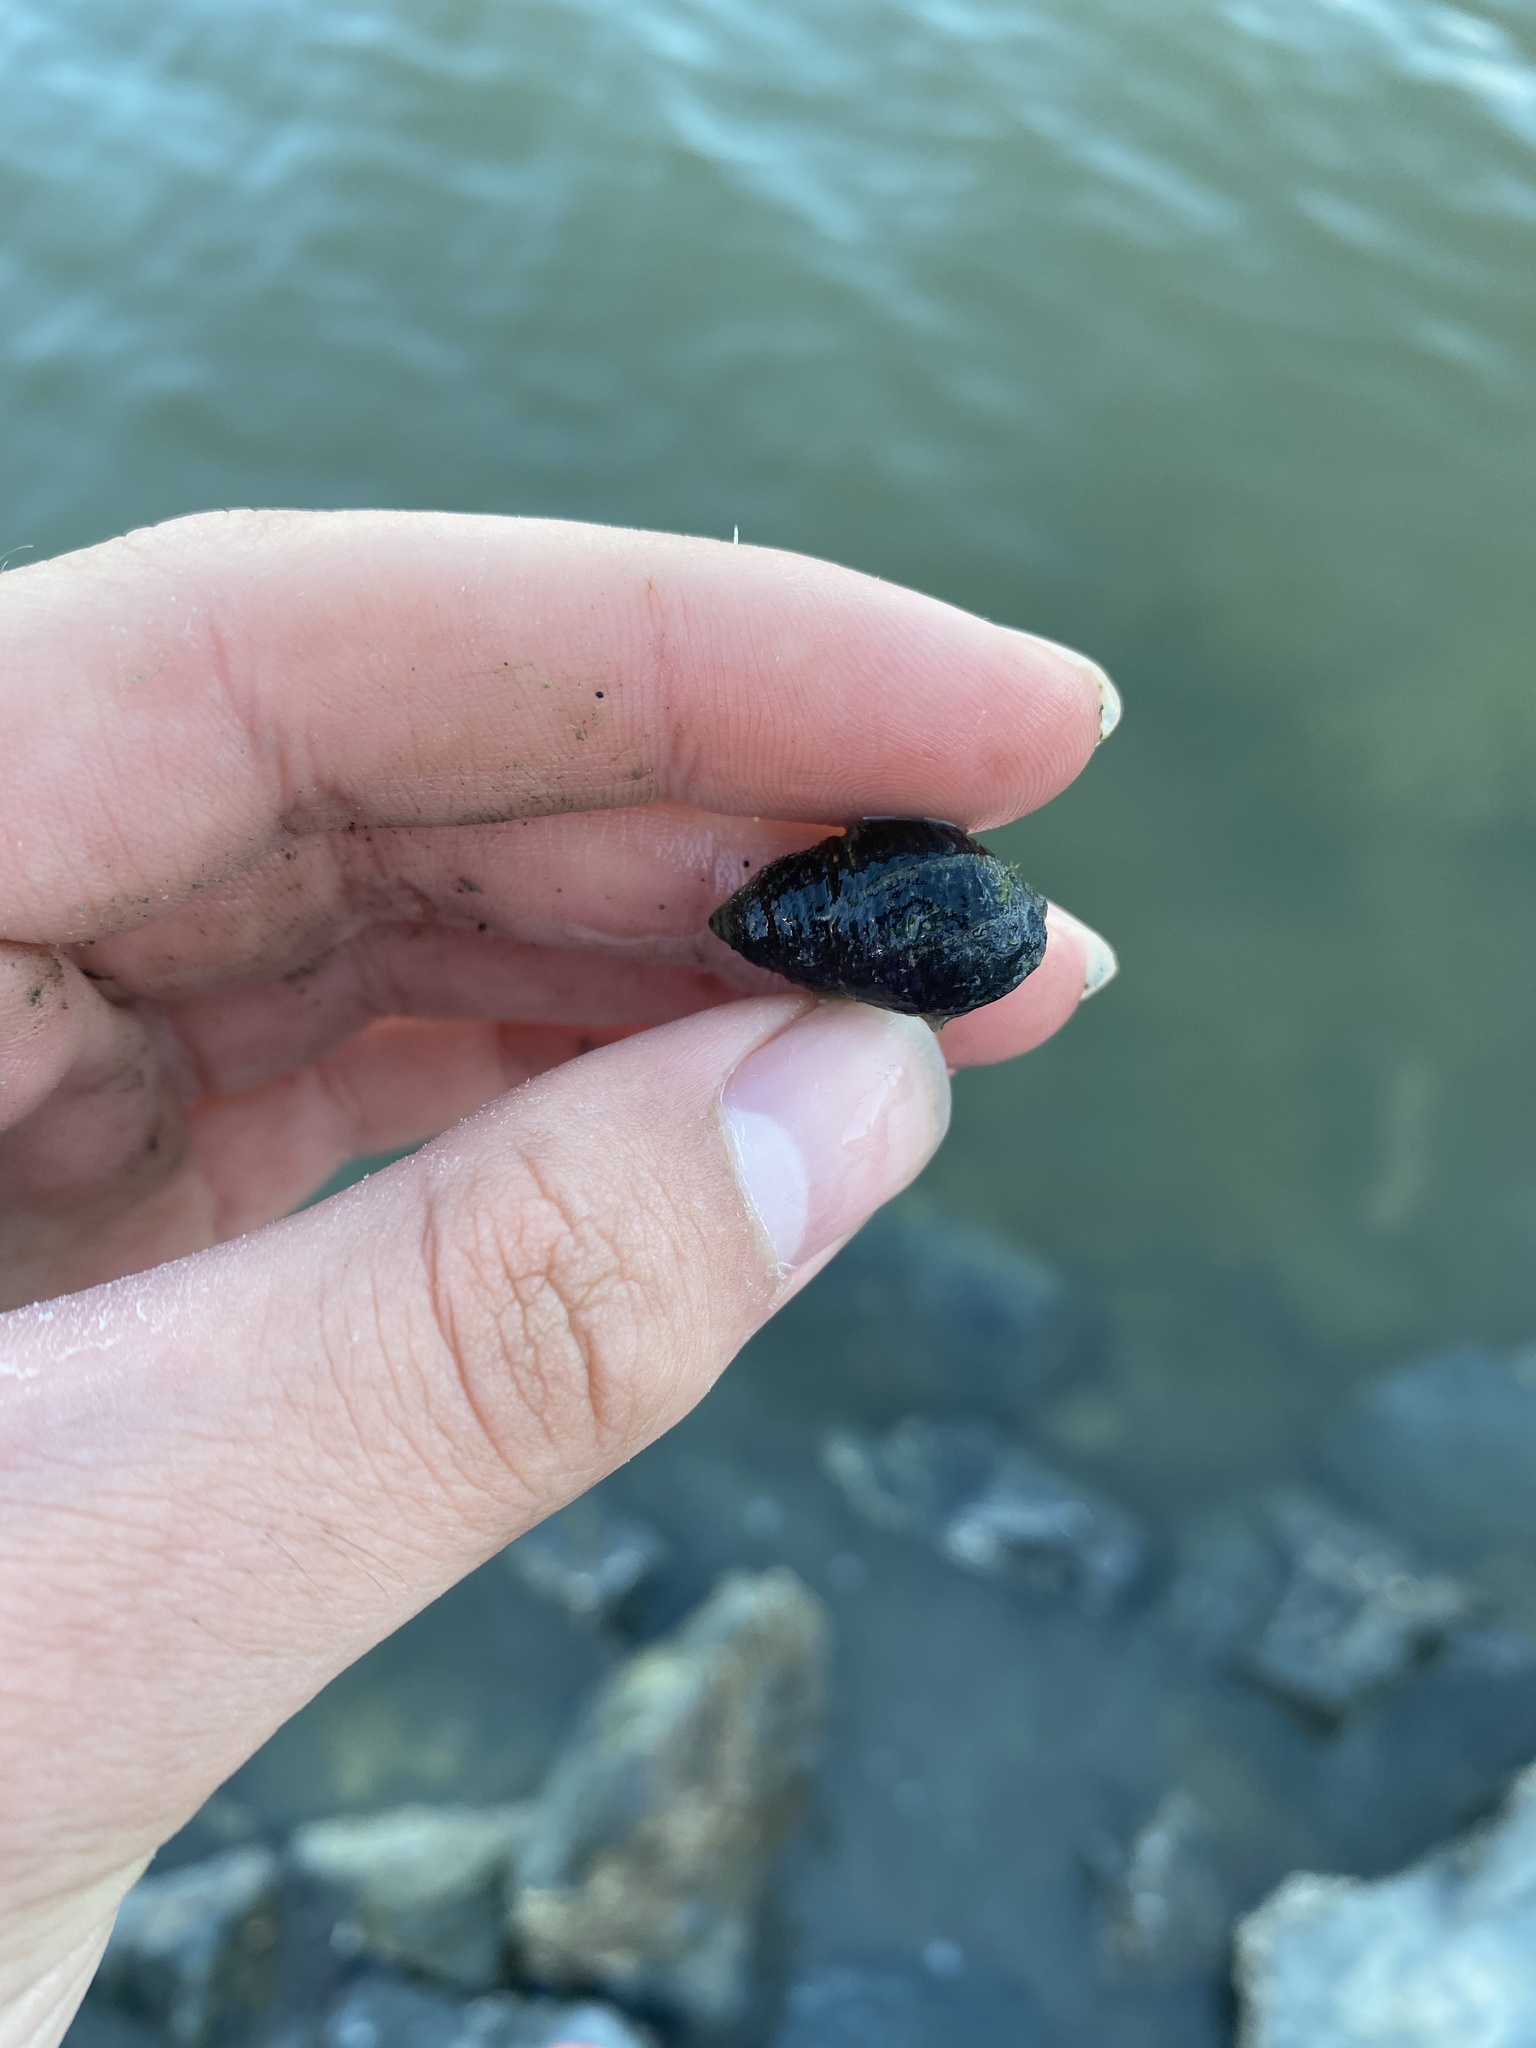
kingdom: Animalia
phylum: Mollusca
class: Gastropoda
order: Neogastropoda
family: Nassariidae
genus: Ilyanassa
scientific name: Ilyanassa obsoleta
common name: Eastern mudsnail
